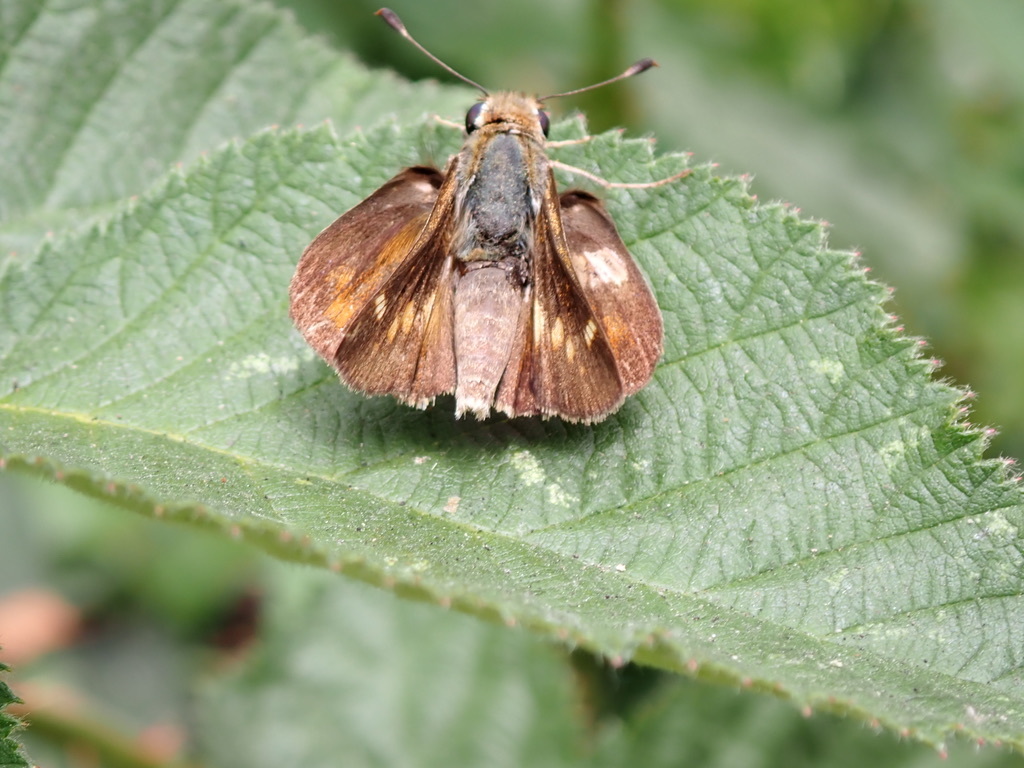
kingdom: Animalia
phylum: Arthropoda
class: Insecta
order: Lepidoptera
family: Hesperiidae
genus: Lon
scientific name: Lon melane
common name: Umber skipper
